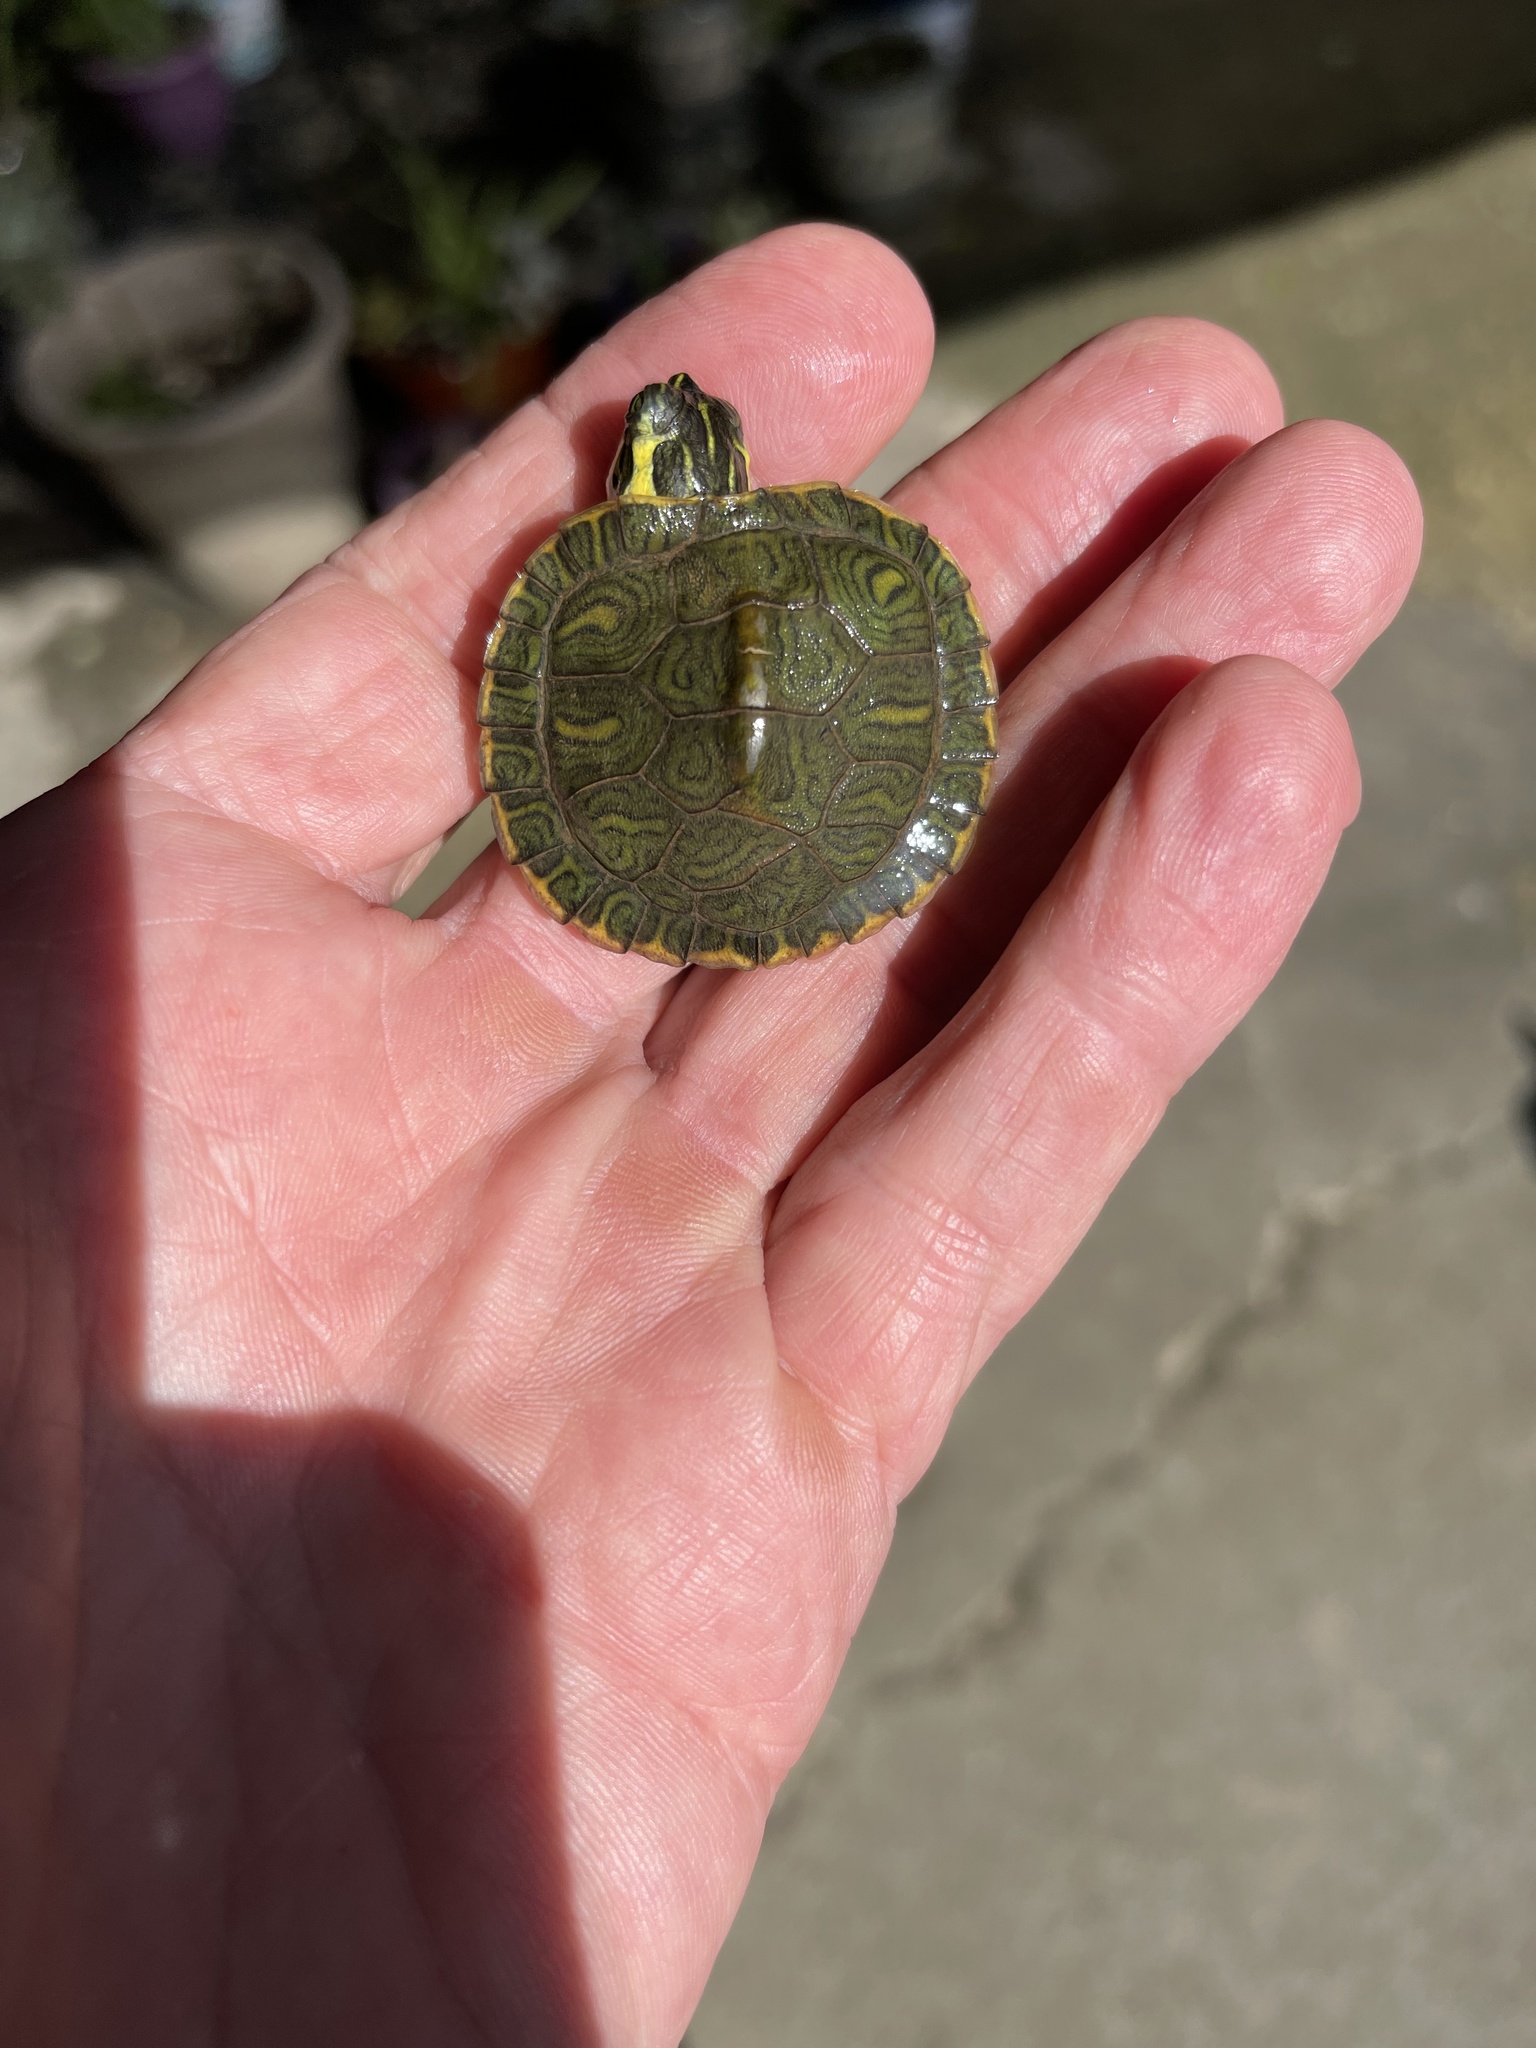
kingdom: Animalia
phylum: Chordata
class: Testudines
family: Emydidae
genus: Trachemys
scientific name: Trachemys scripta
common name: Slider
